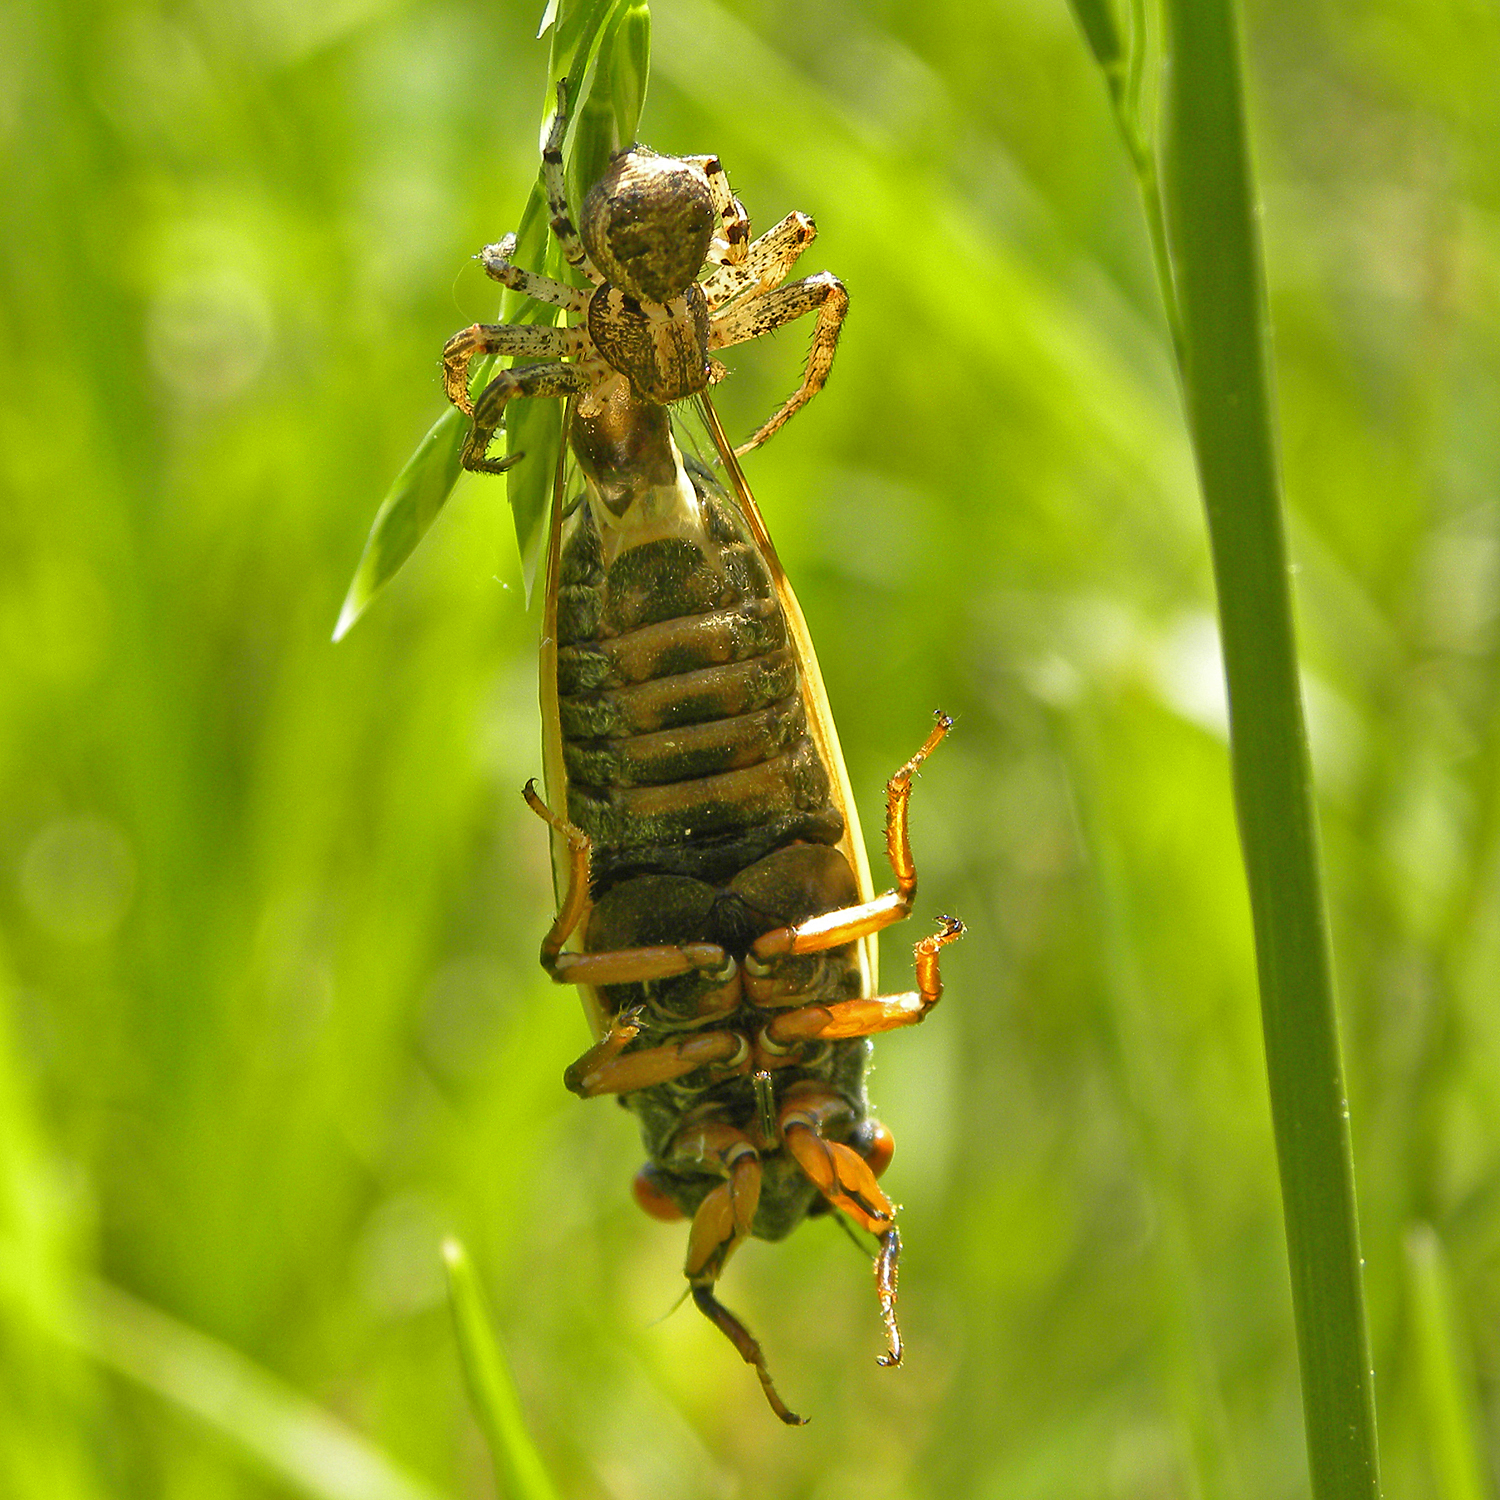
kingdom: Animalia
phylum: Arthropoda
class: Arachnida
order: Araneae
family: Thomisidae
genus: Xysticus
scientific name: Xysticus
